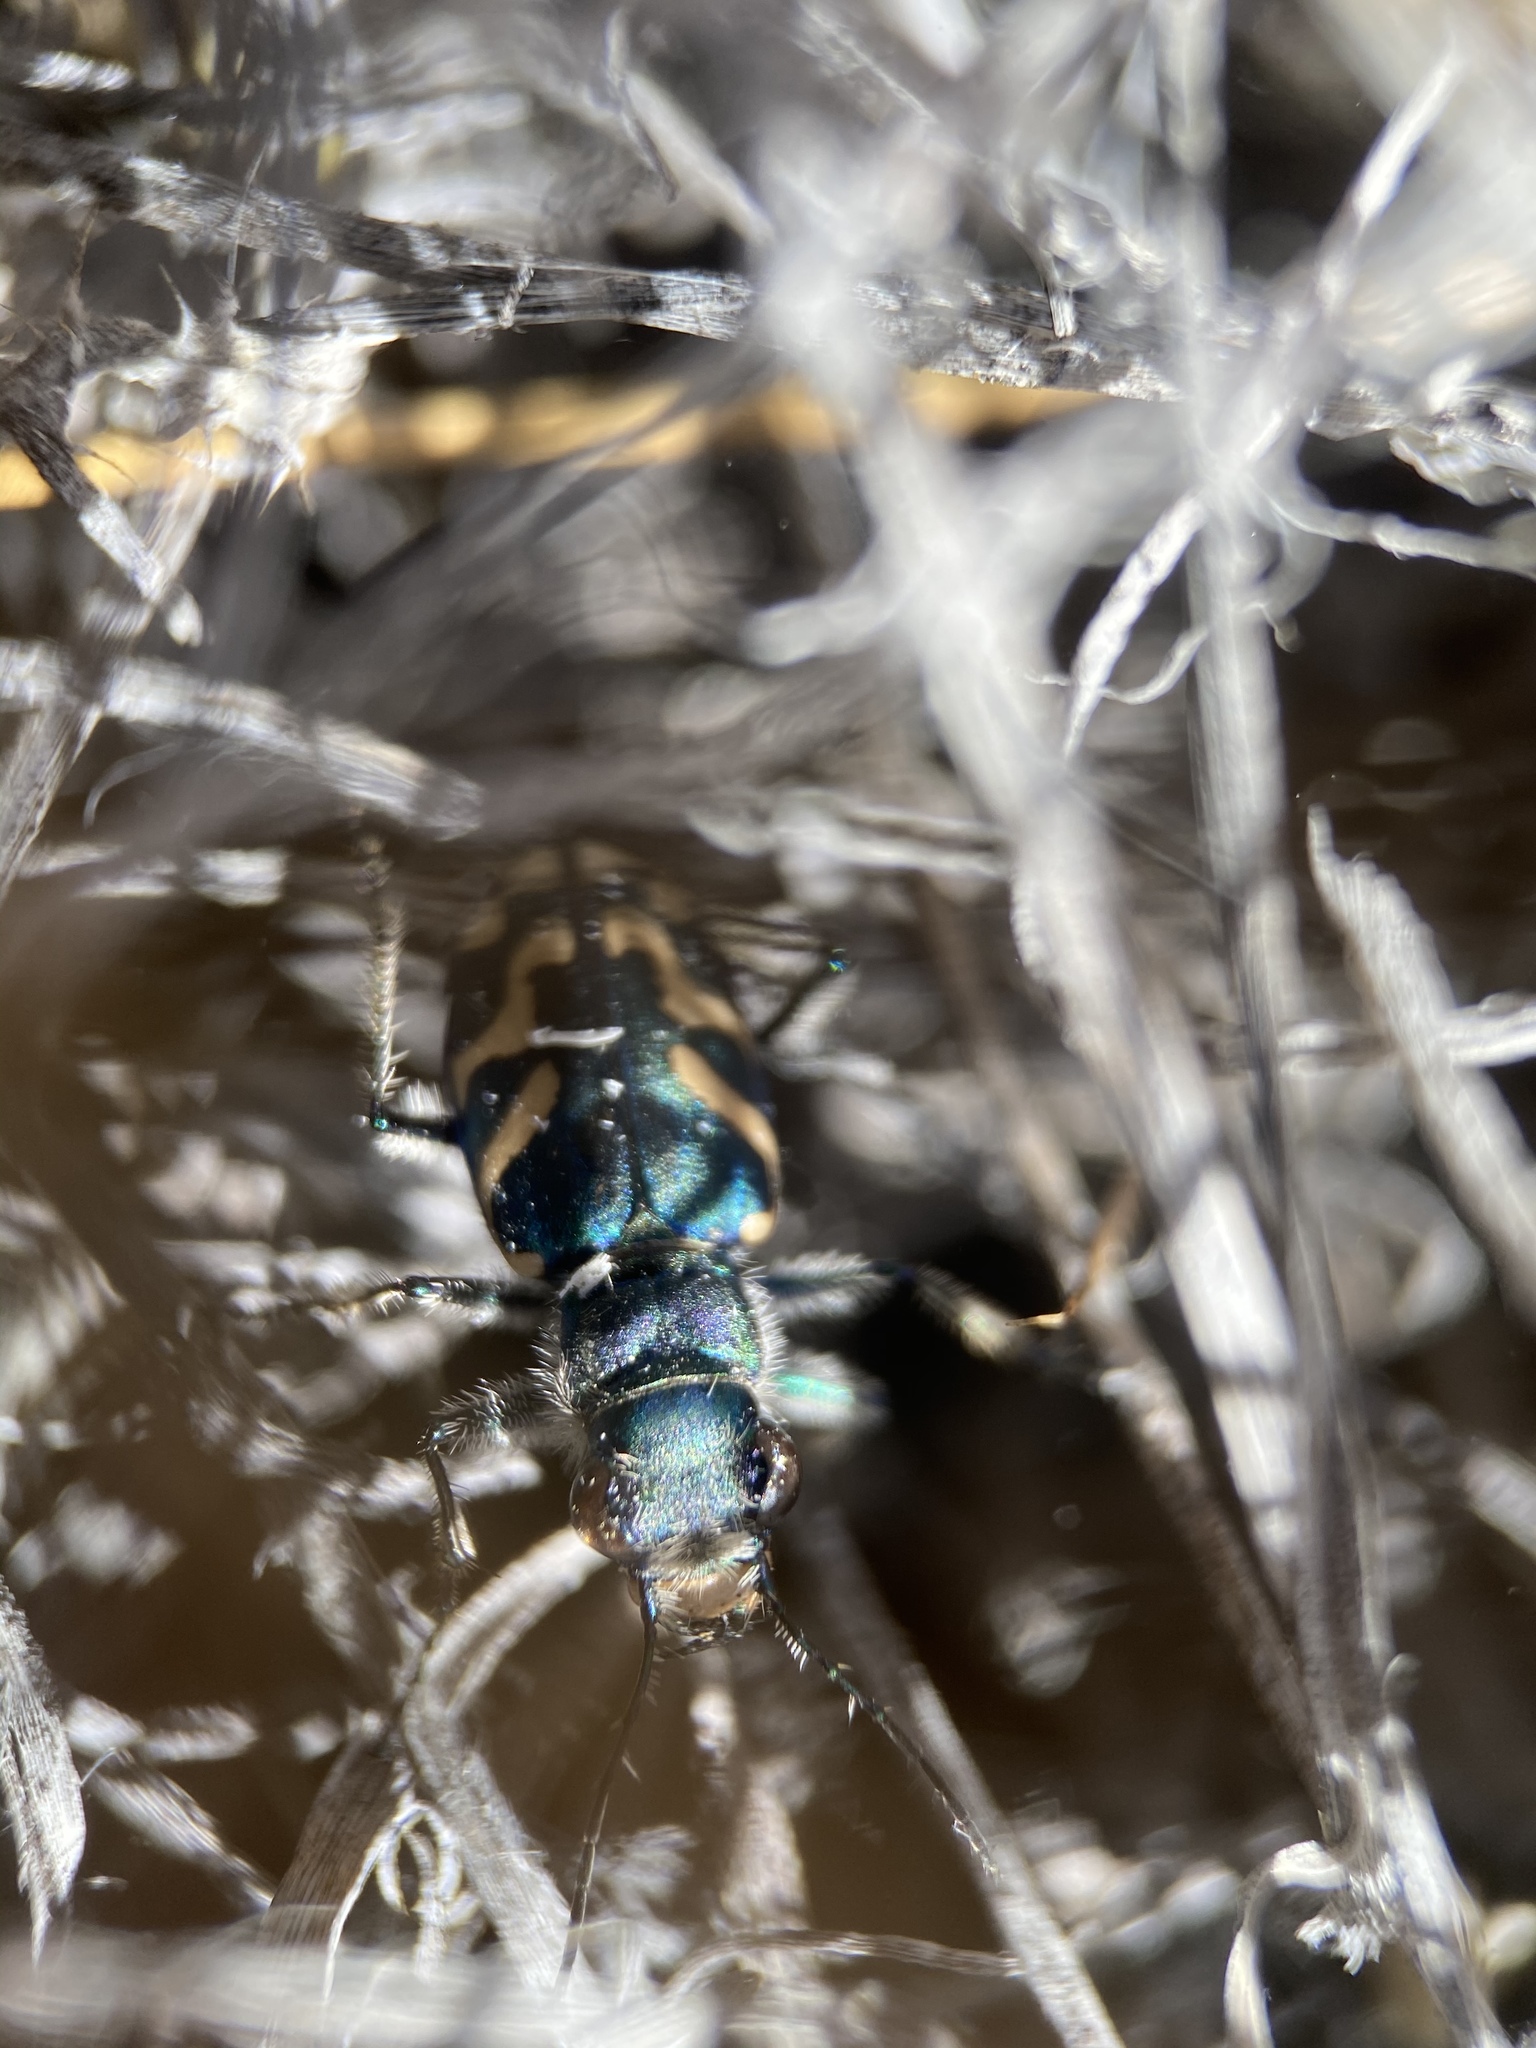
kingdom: Animalia
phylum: Arthropoda
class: Insecta
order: Coleoptera
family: Carabidae
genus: Cicindela
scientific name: Cicindela tranquebarica
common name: Oblique-lined tiger beetle
